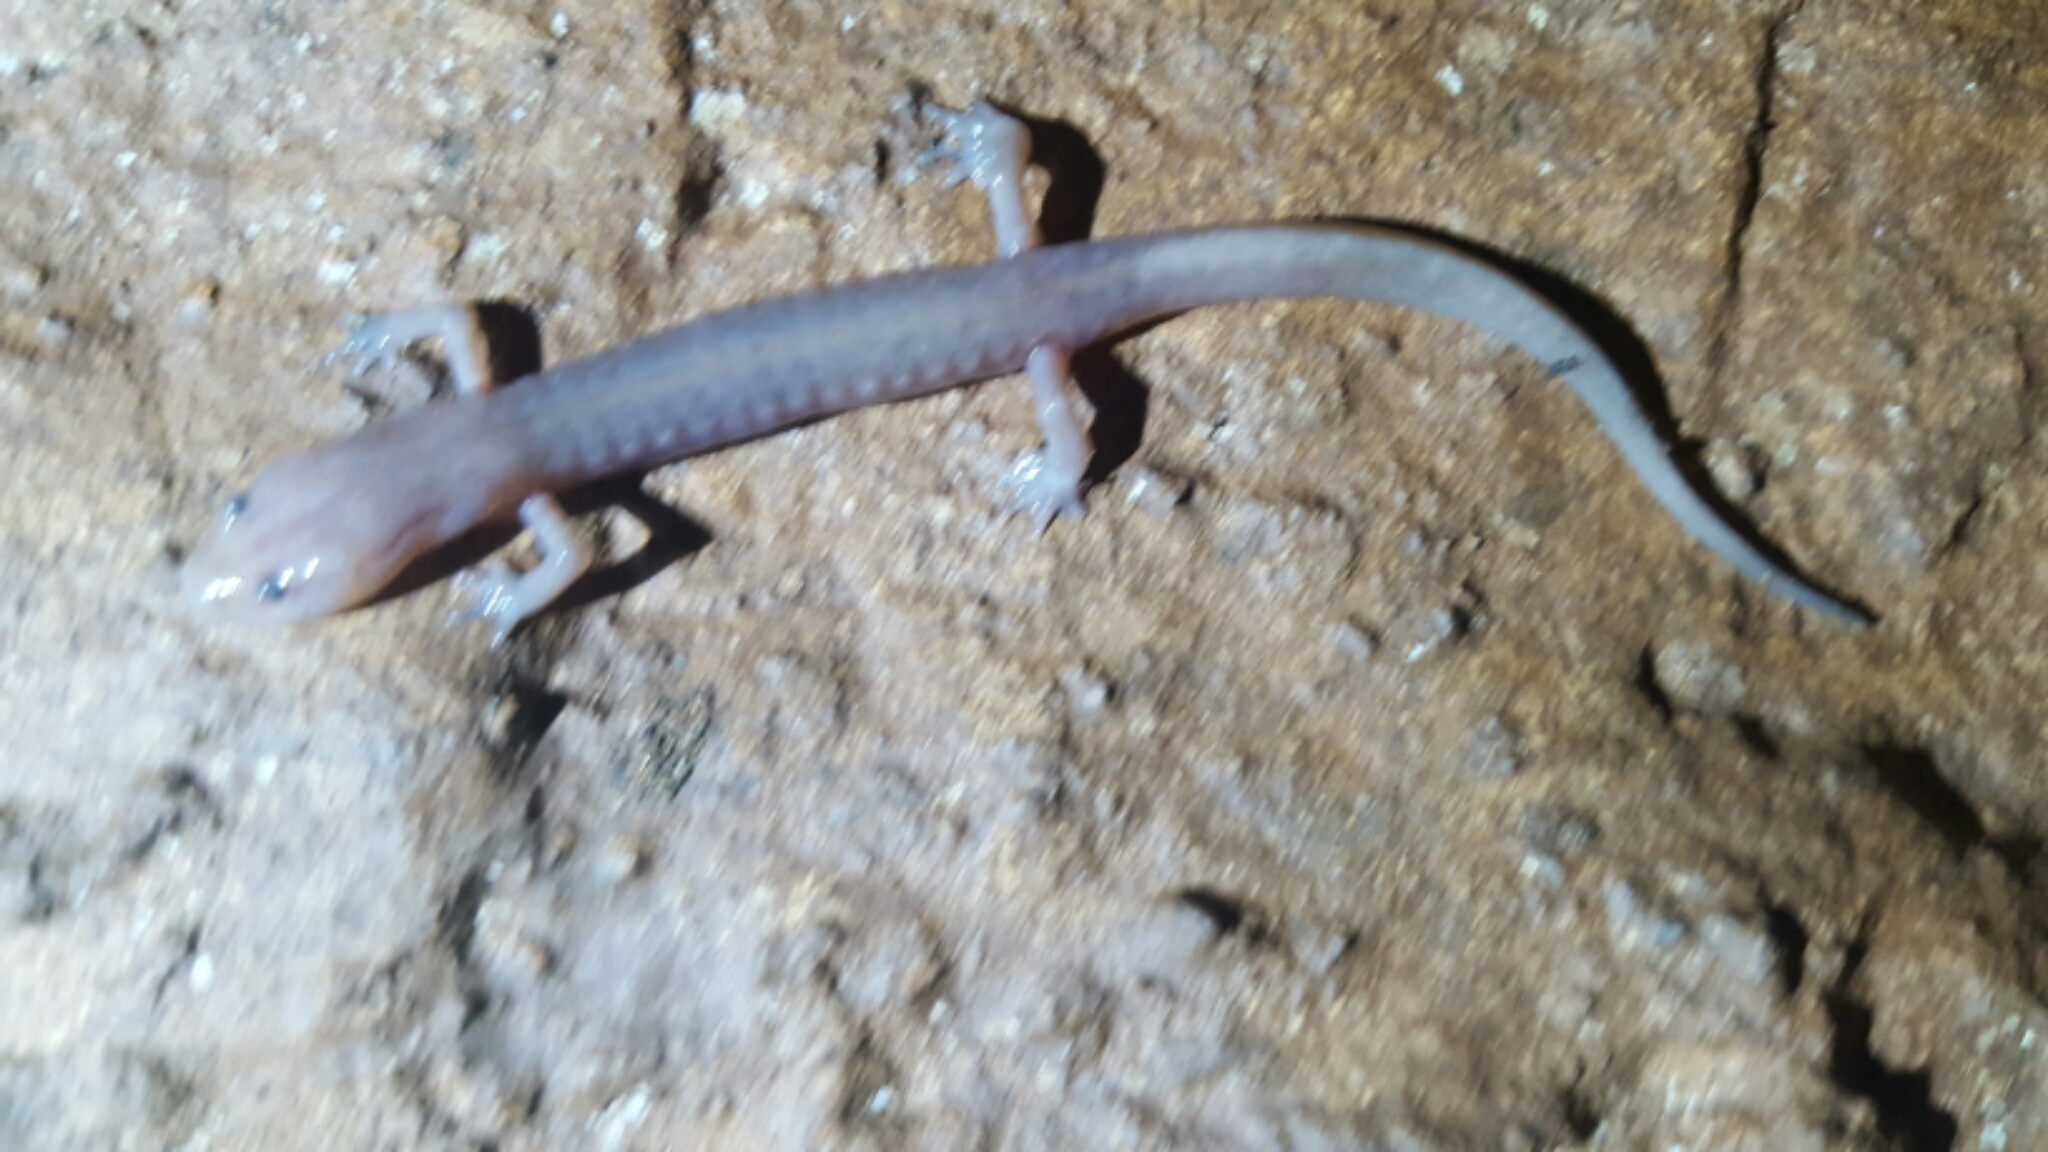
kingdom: Animalia
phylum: Chordata
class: Amphibia
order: Caudata
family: Plethodontidae
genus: Eurycea
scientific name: Eurycea braggi
